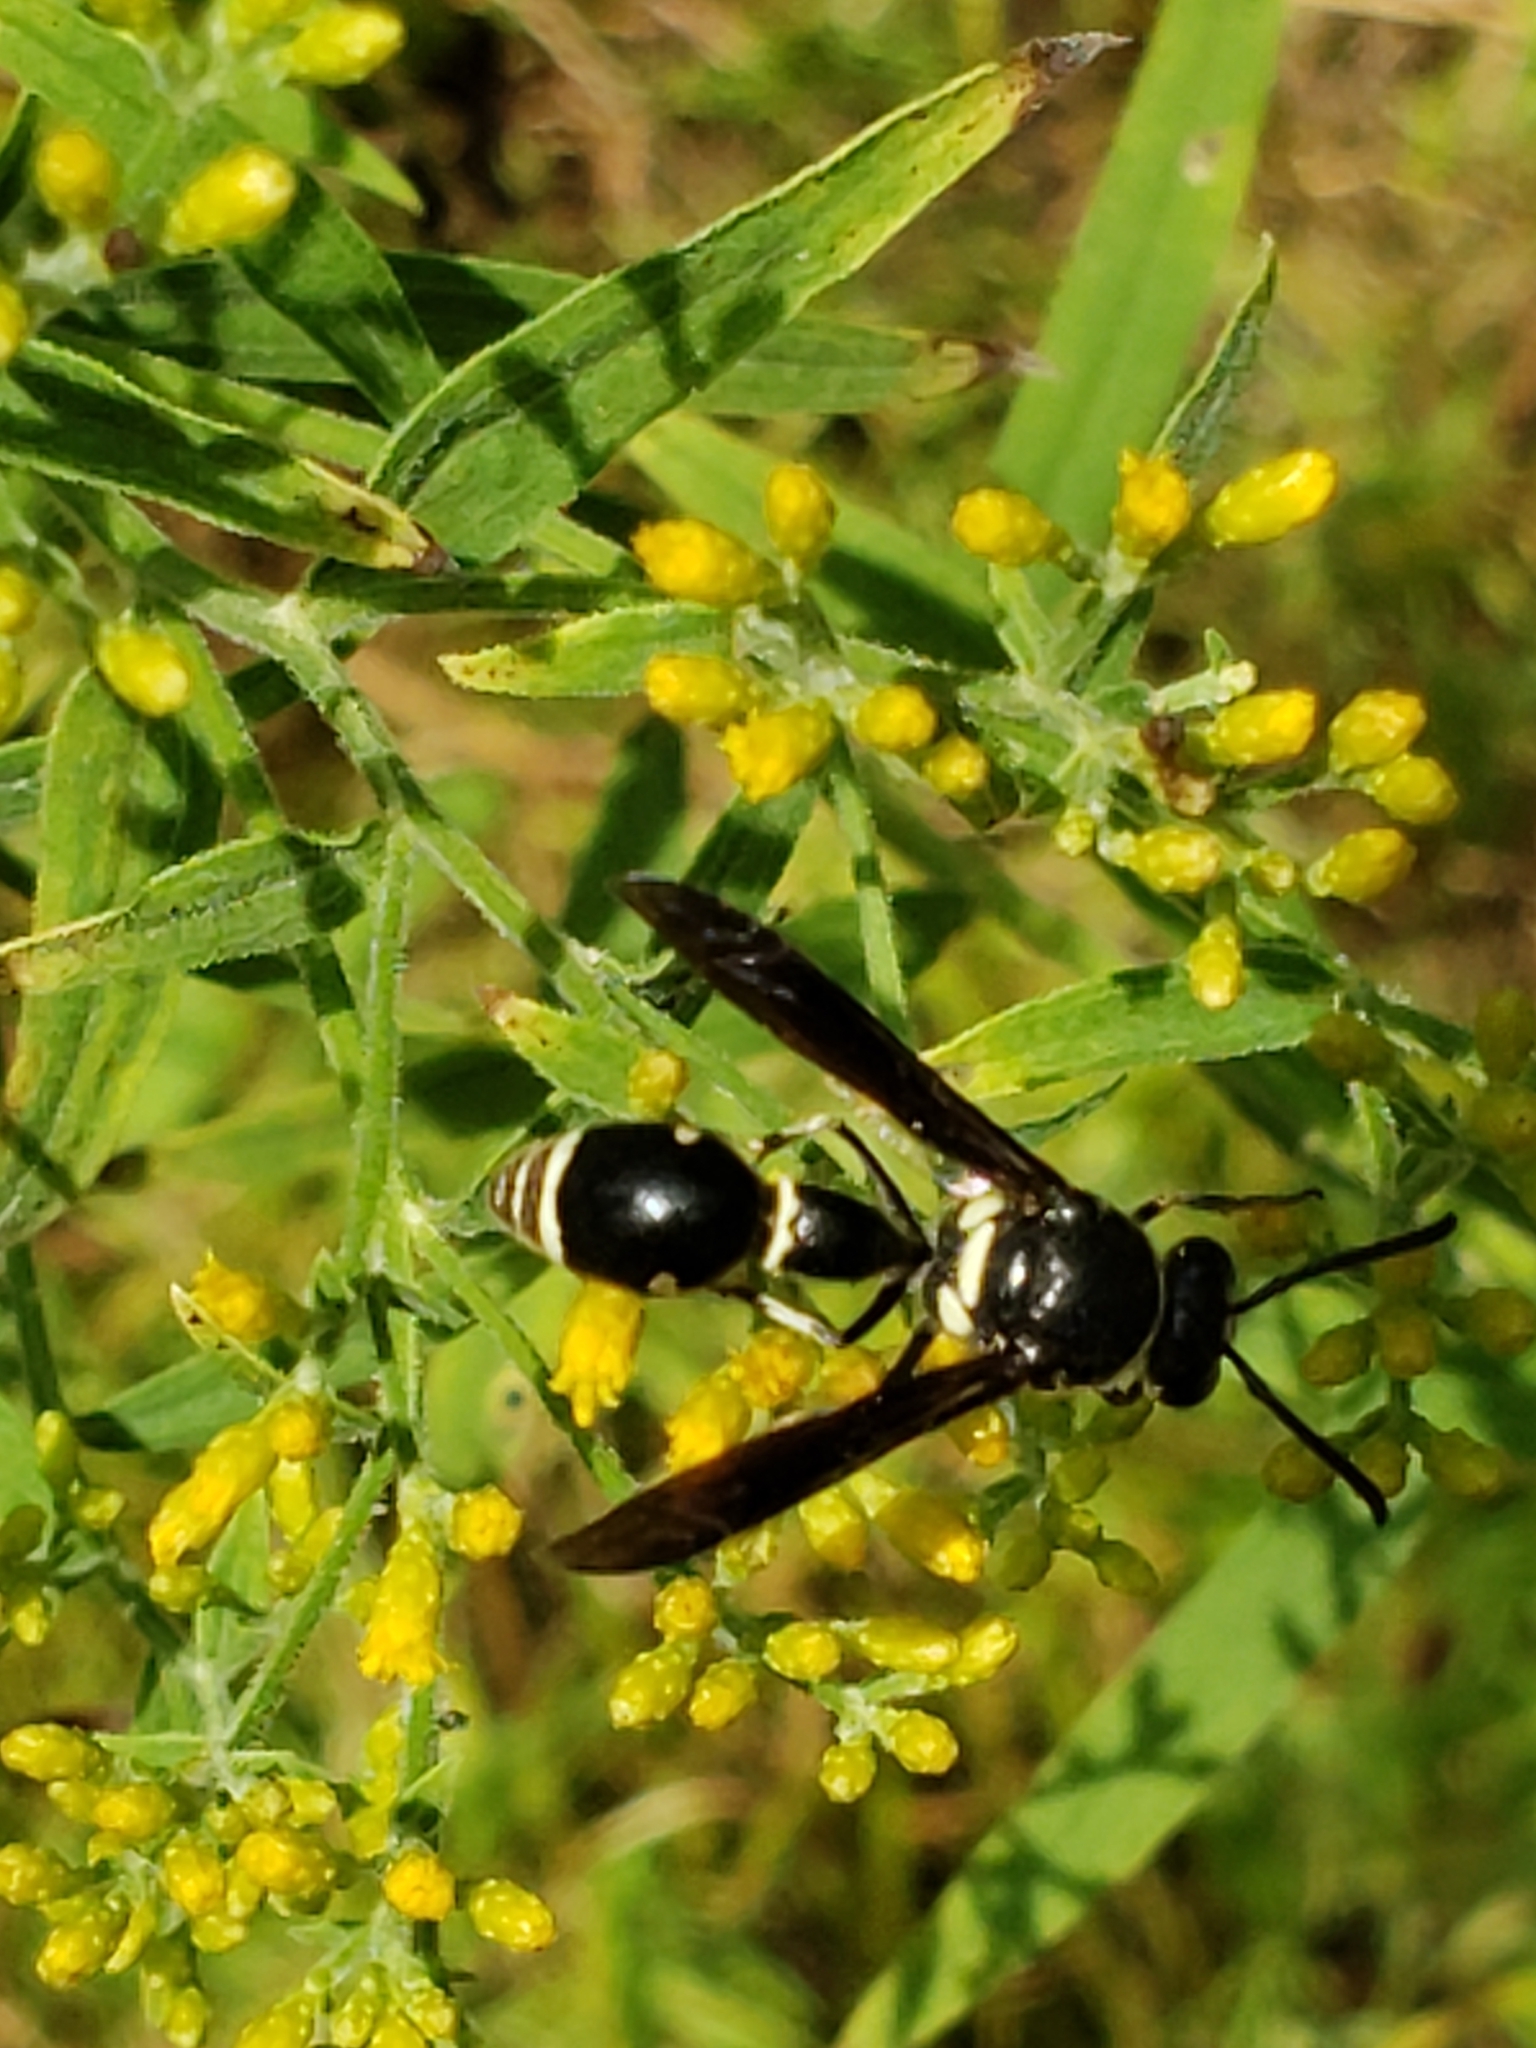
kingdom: Animalia
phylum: Arthropoda
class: Insecta
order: Hymenoptera
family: Vespidae
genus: Eumenes
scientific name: Eumenes fraternus
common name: Fraternal potter wasp
